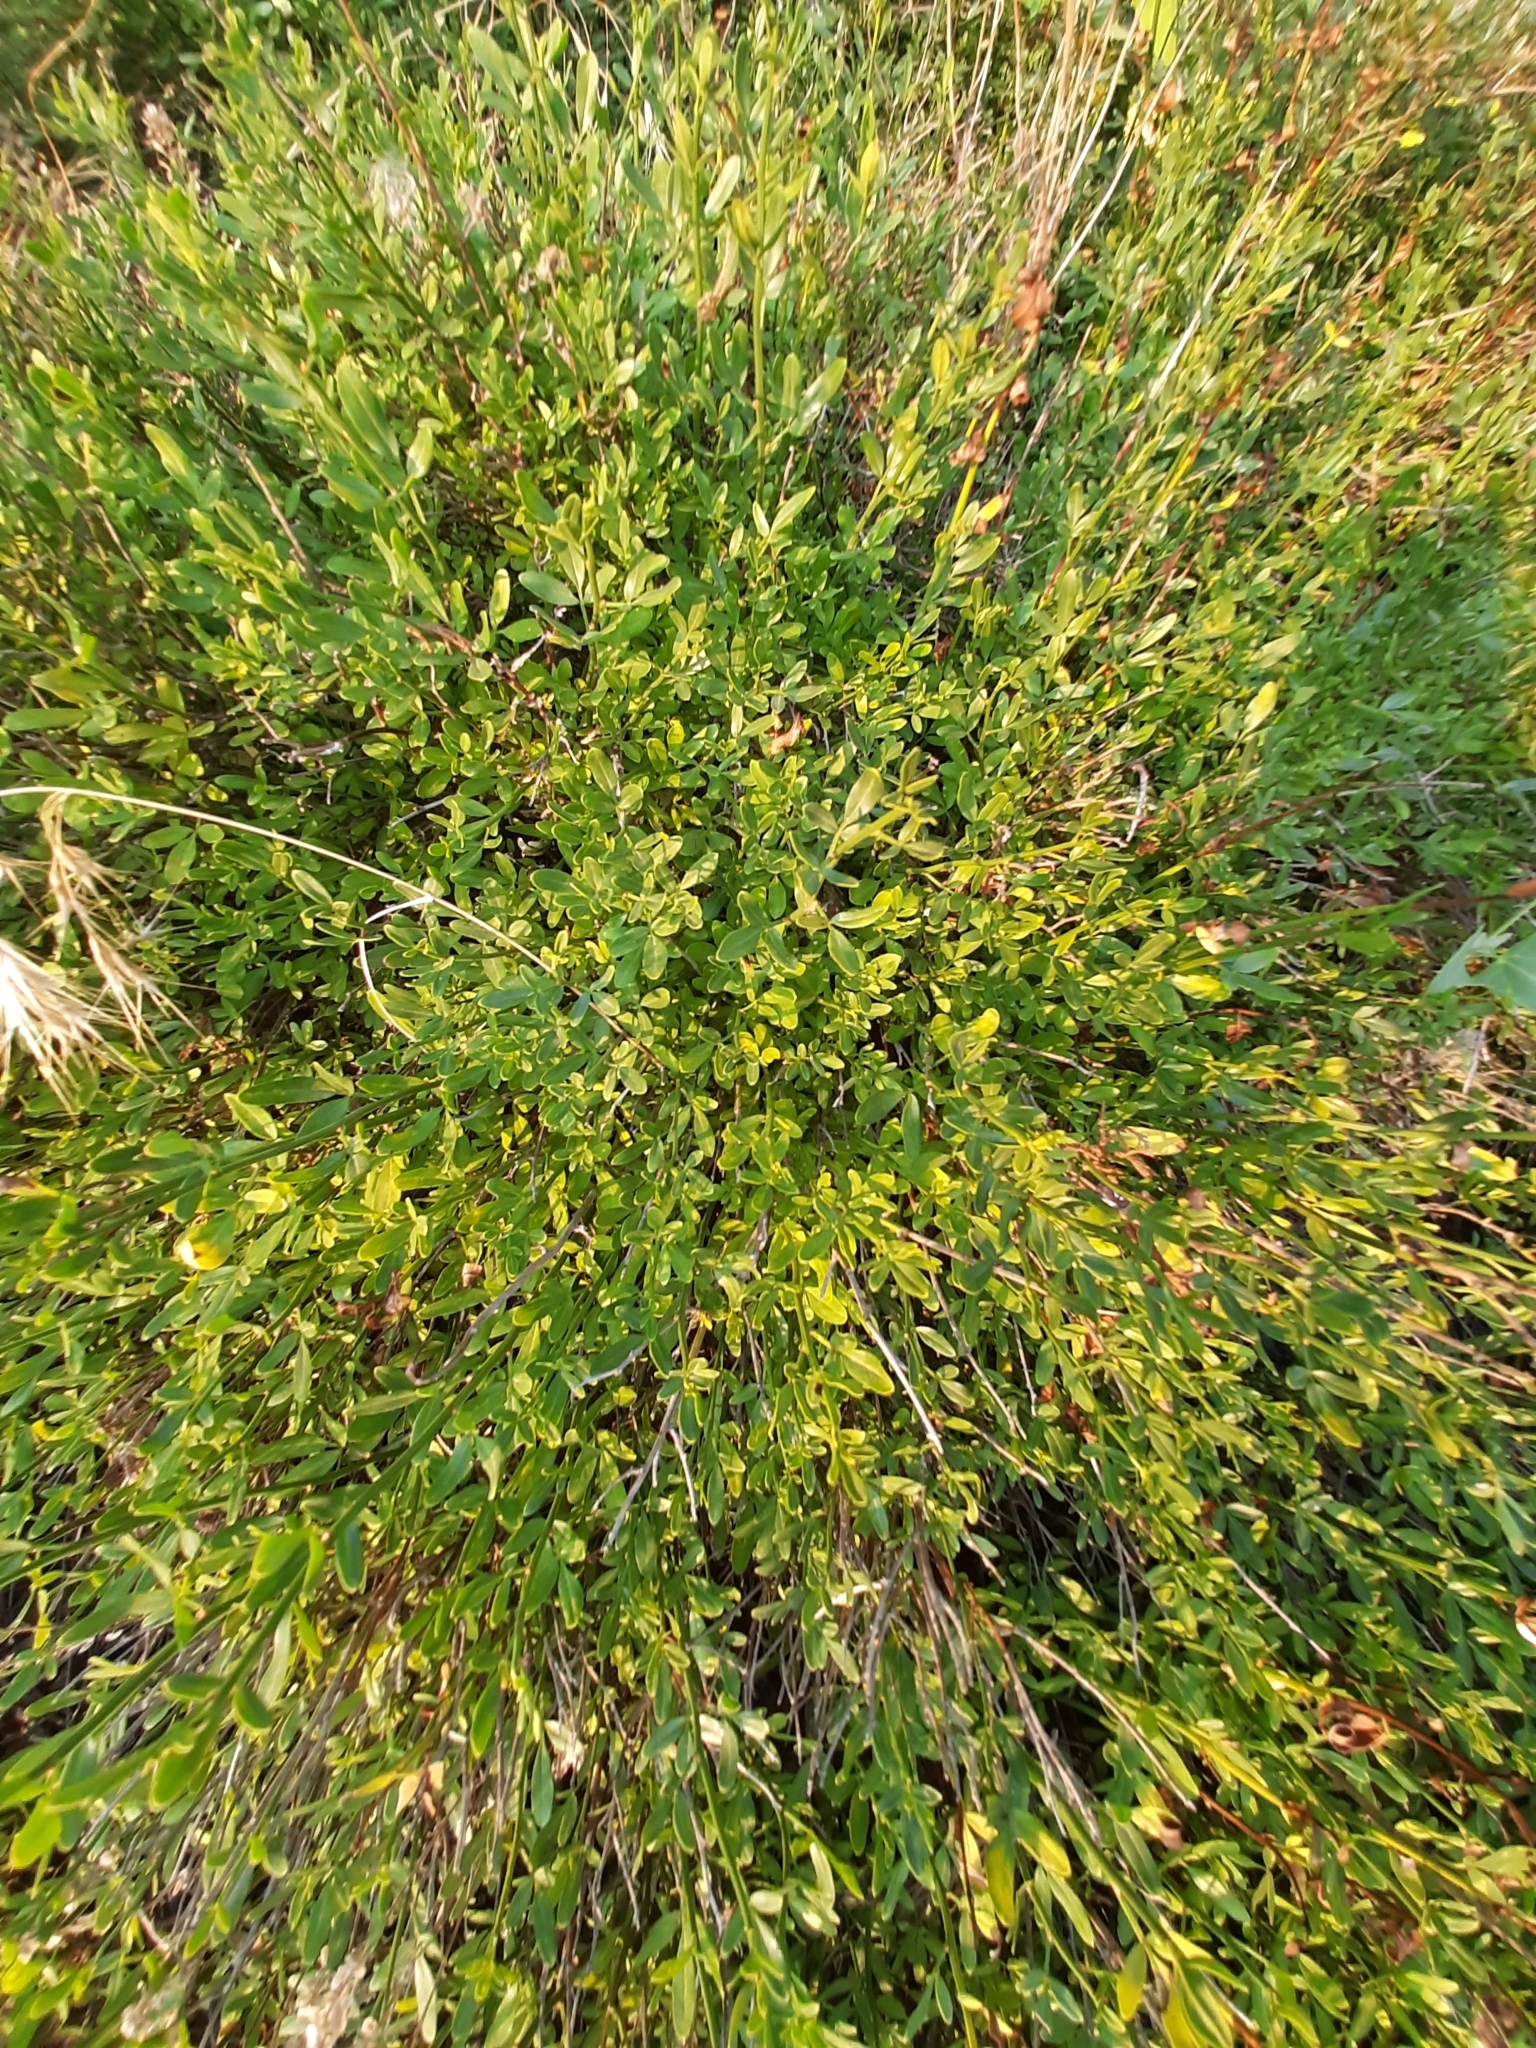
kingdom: Plantae
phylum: Tracheophyta
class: Magnoliopsida
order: Lamiales
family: Oleaceae
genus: Chrysojasminum
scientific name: Chrysojasminum fruticans
